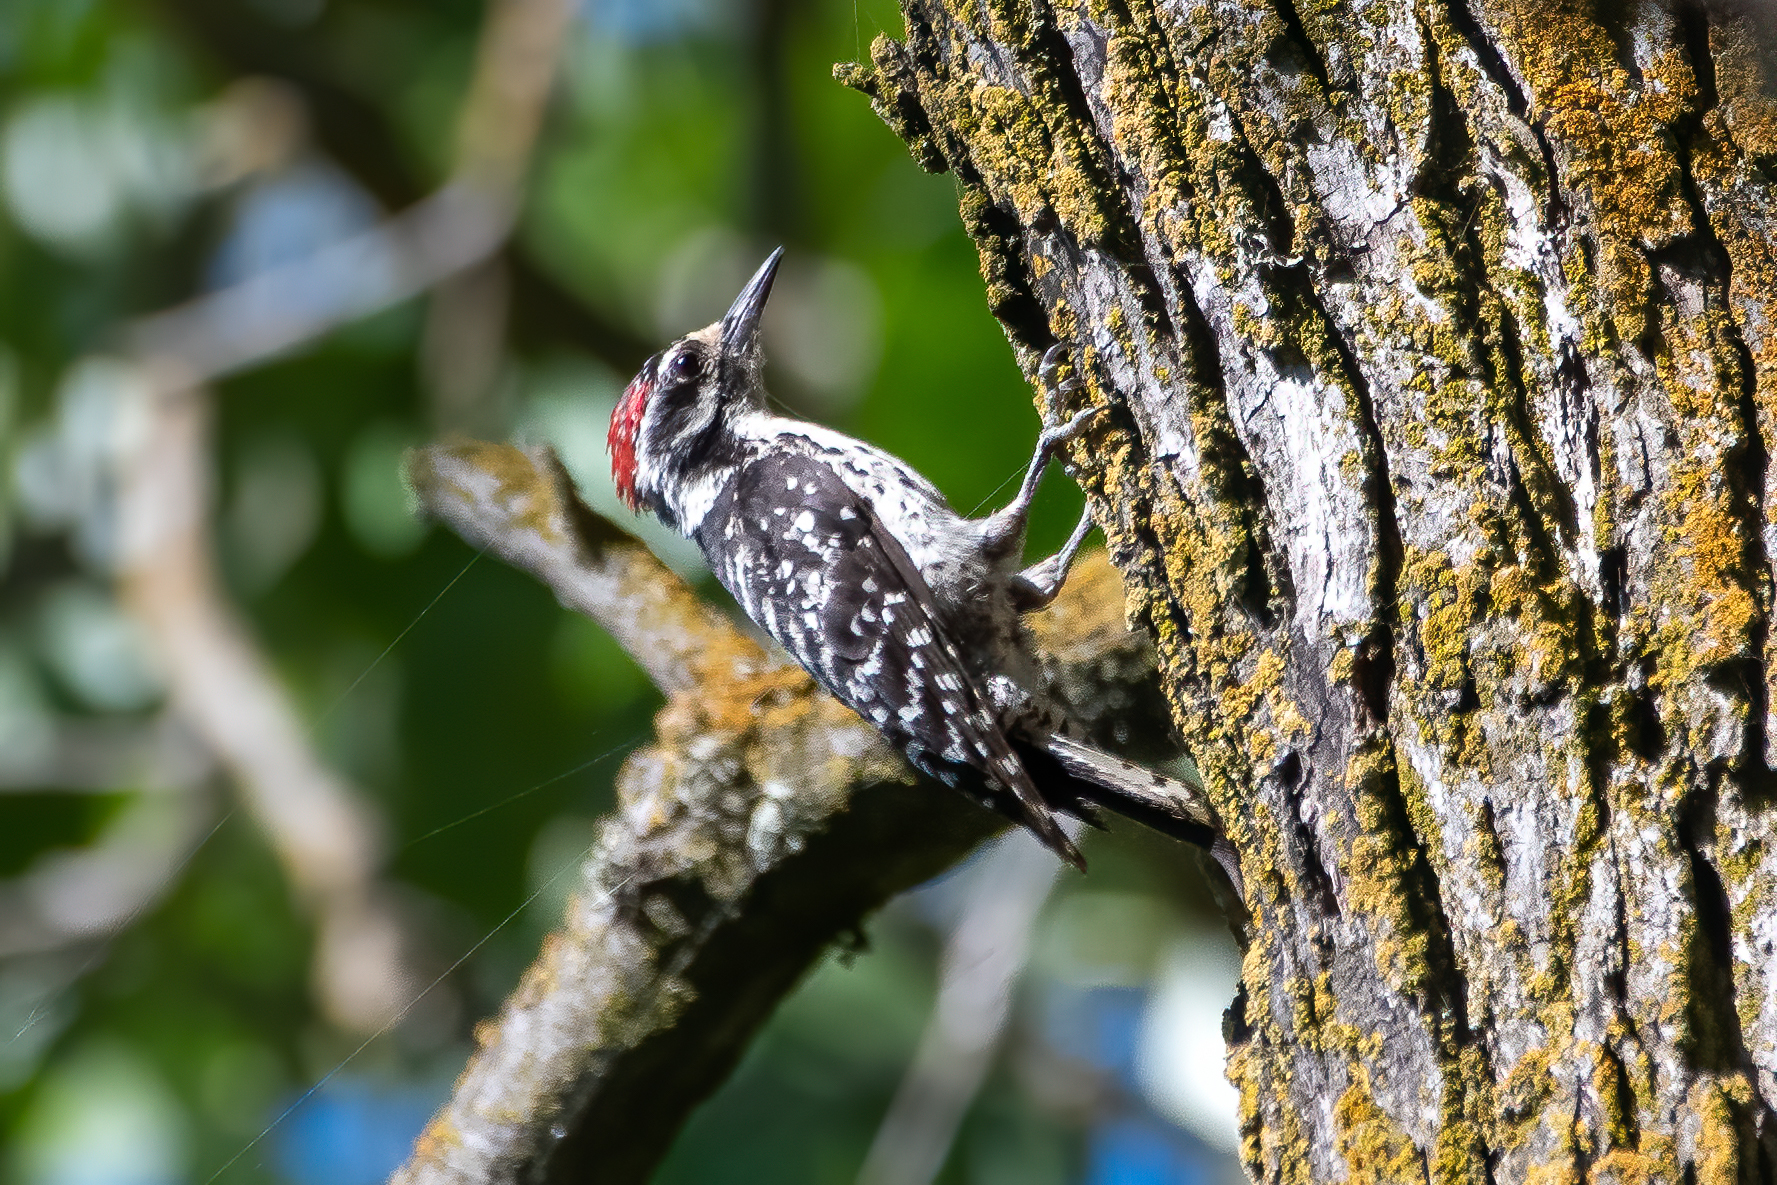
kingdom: Animalia
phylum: Chordata
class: Aves
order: Piciformes
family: Picidae
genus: Dryobates
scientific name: Dryobates nuttallii
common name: Nuttall's woodpecker
